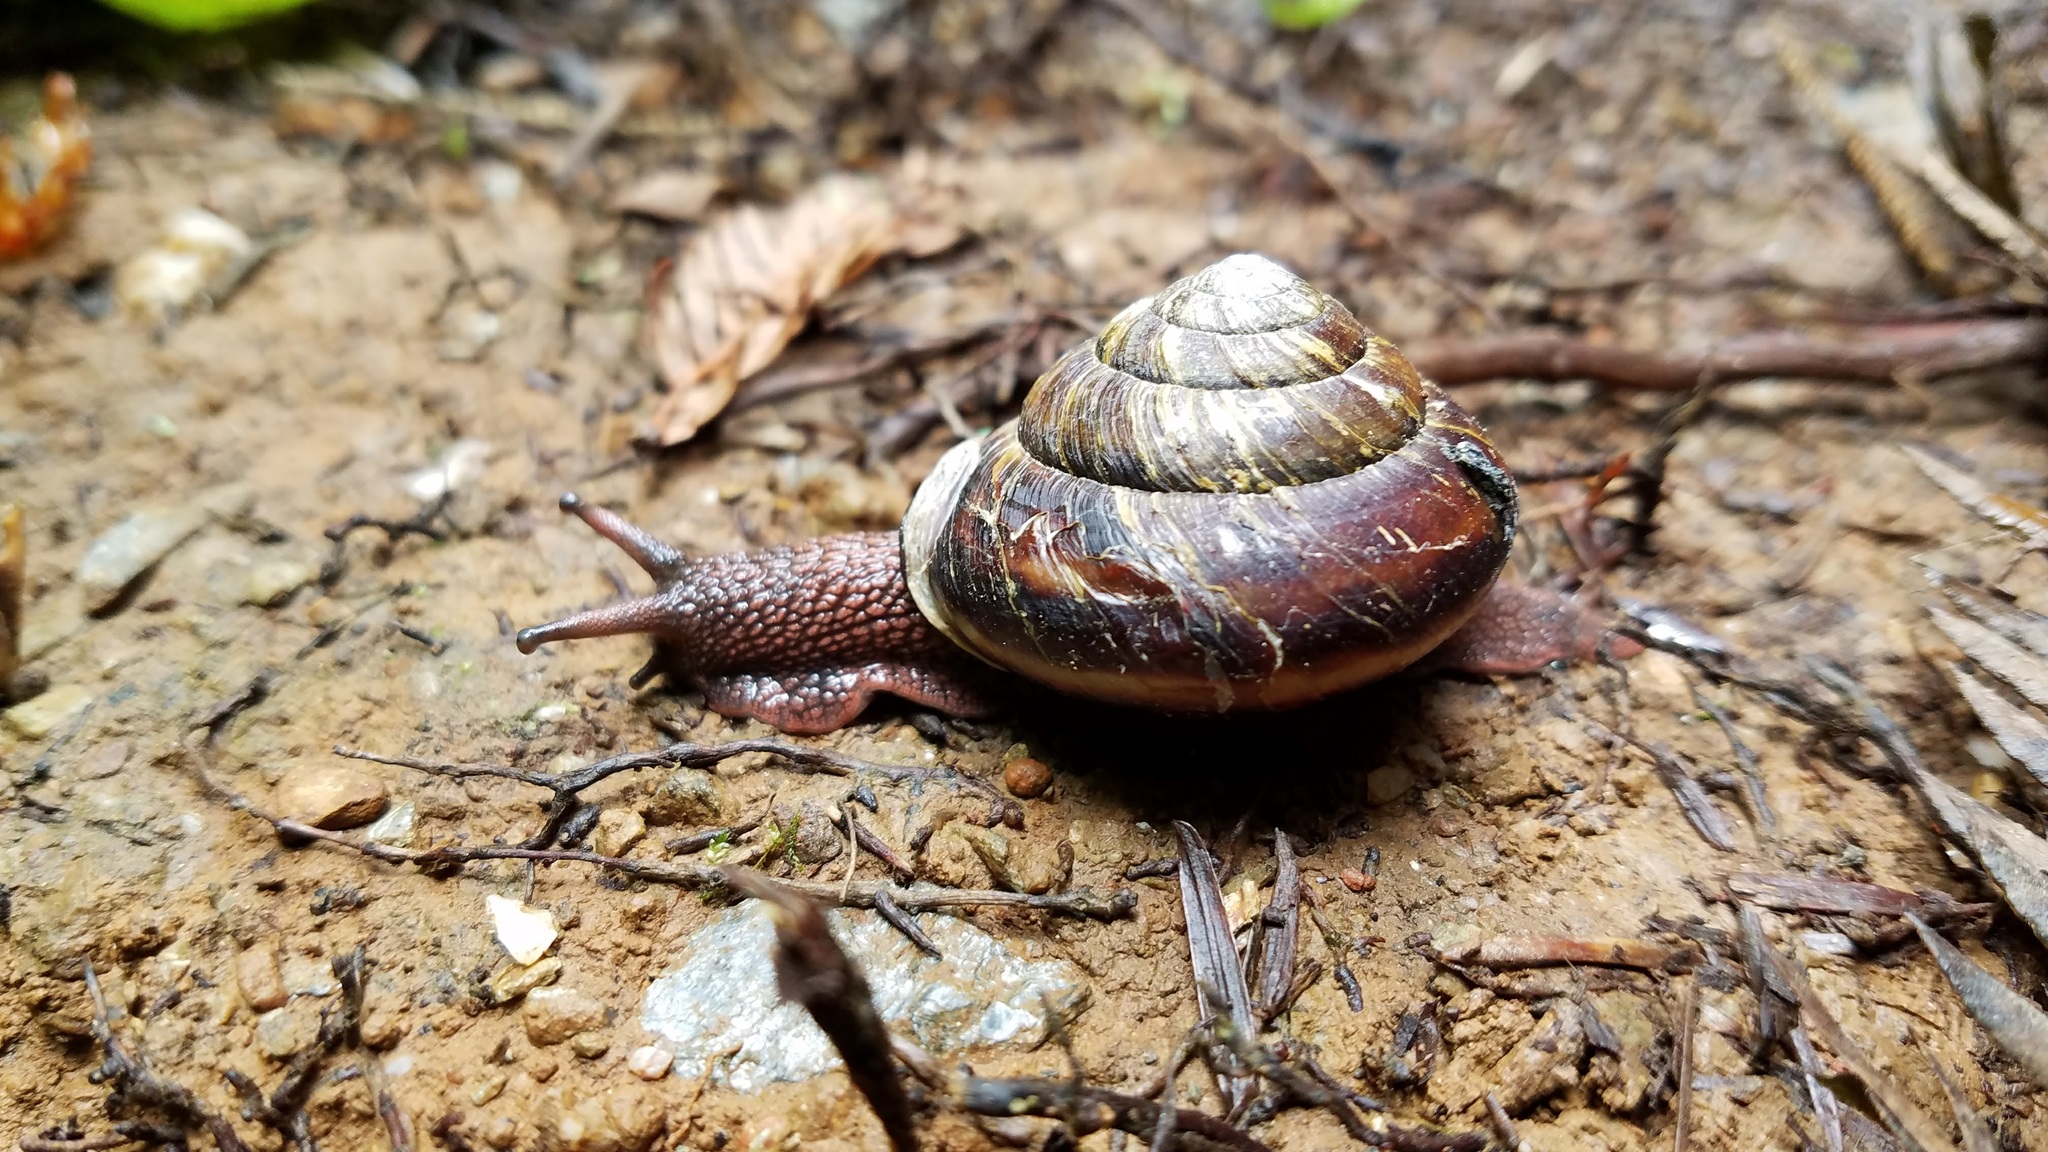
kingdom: Animalia
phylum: Mollusca
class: Gastropoda
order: Stylommatophora
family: Xanthonychidae
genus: Monadenia
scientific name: Monadenia fidelis
